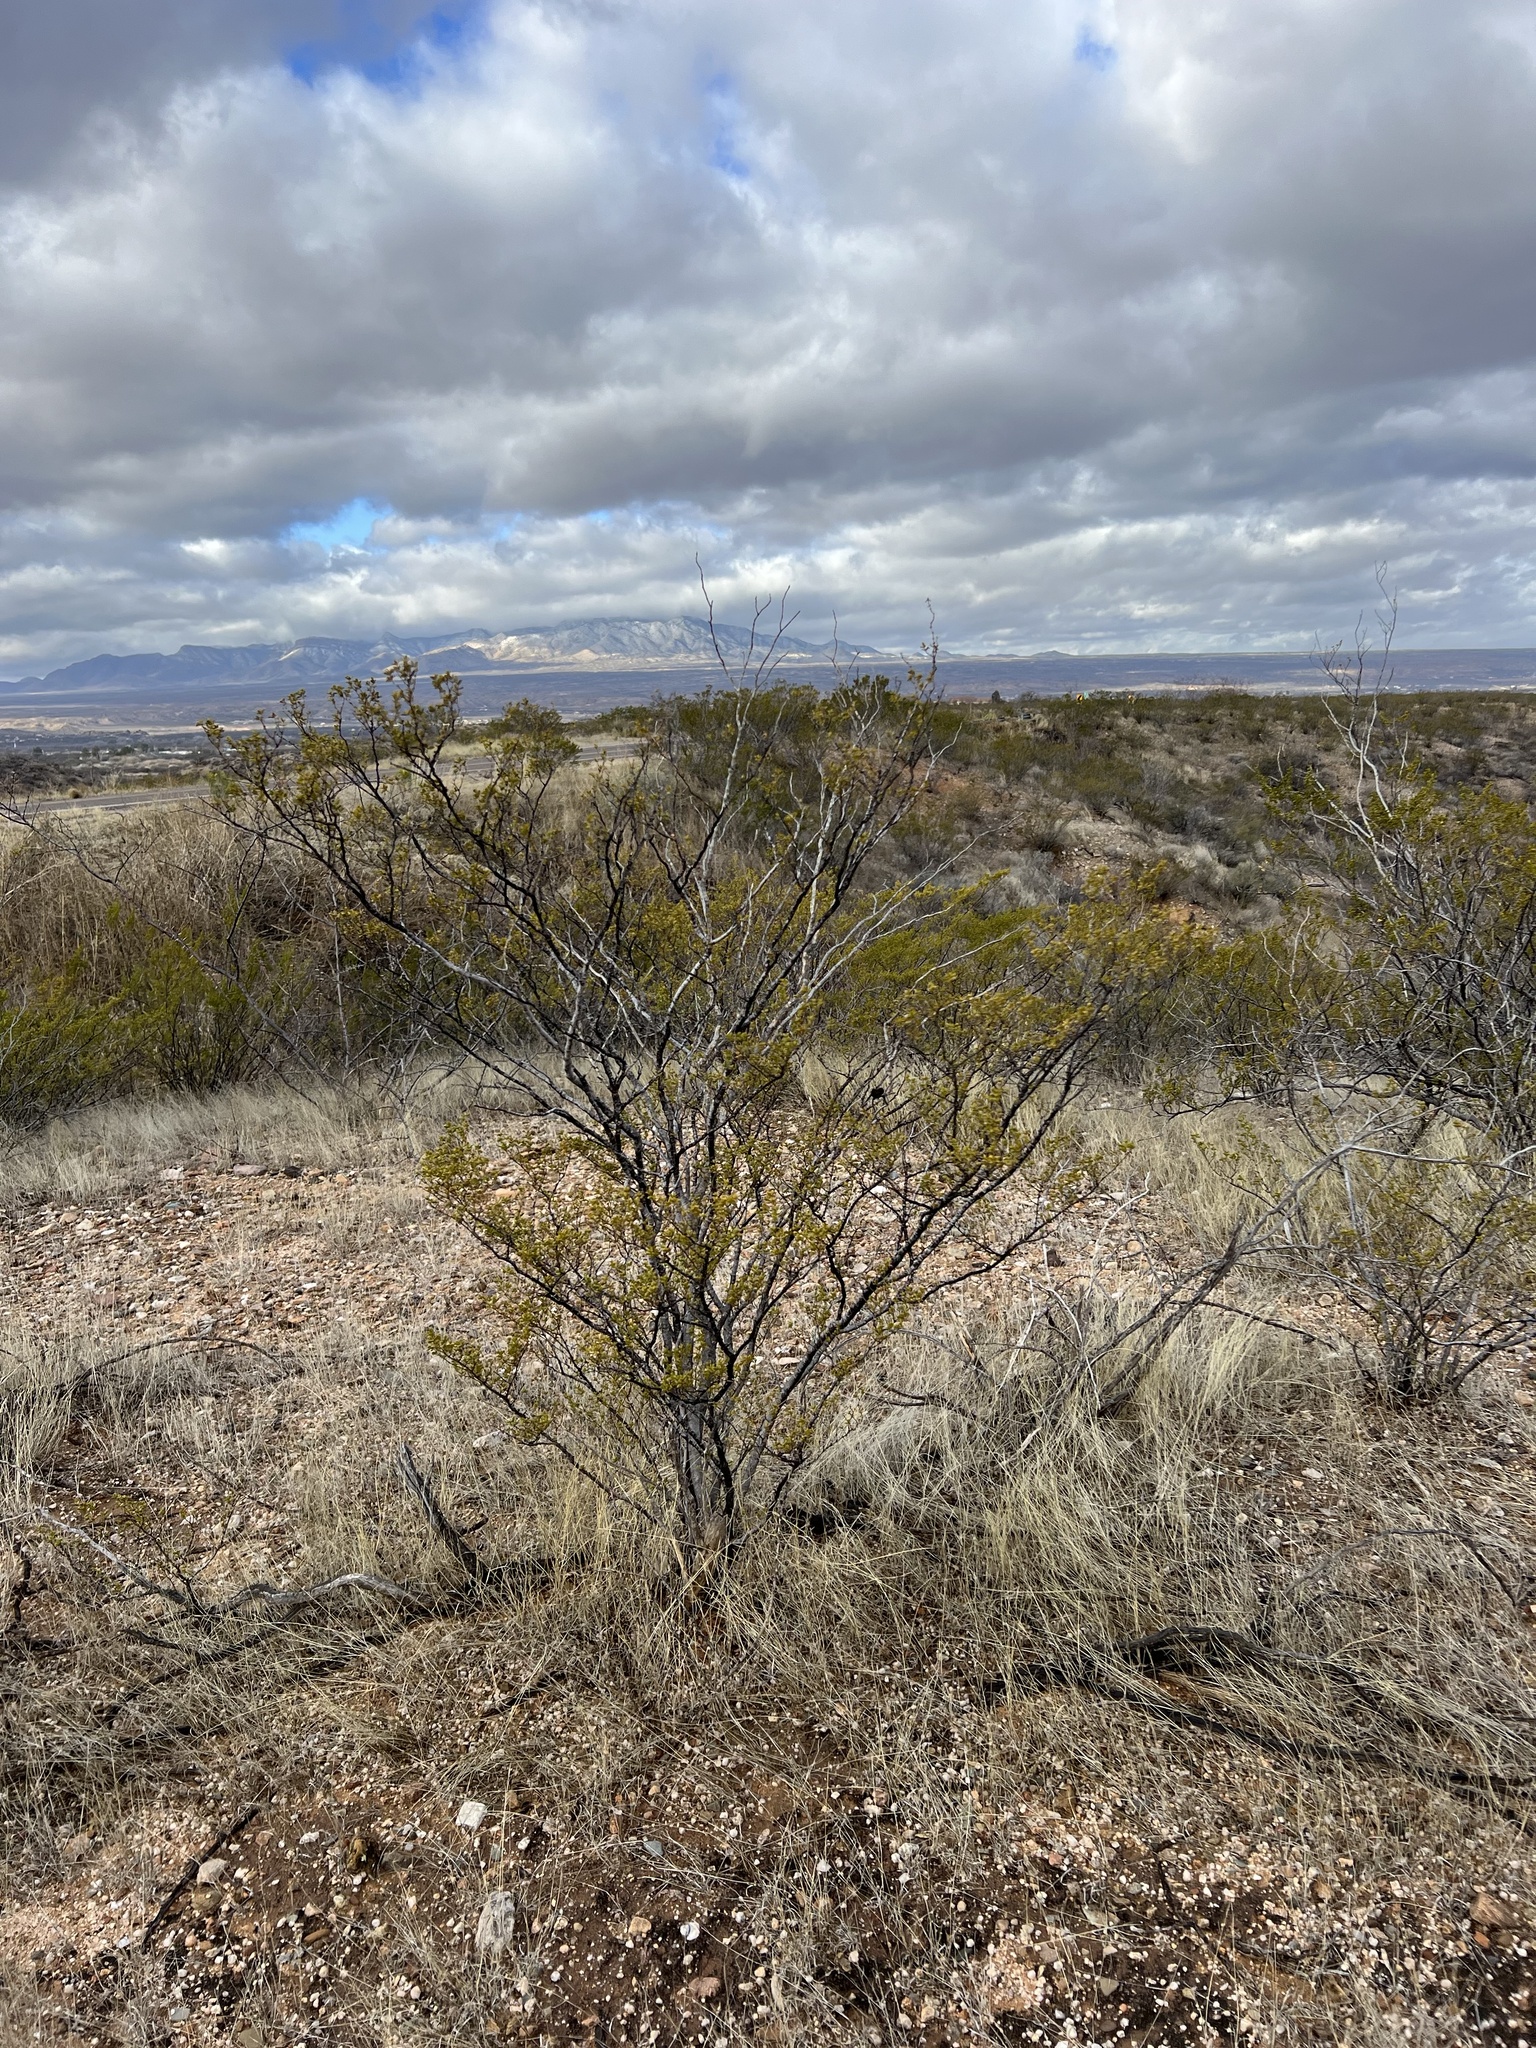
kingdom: Plantae
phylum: Tracheophyta
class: Magnoliopsida
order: Zygophyllales
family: Zygophyllaceae
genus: Larrea
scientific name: Larrea tridentata
